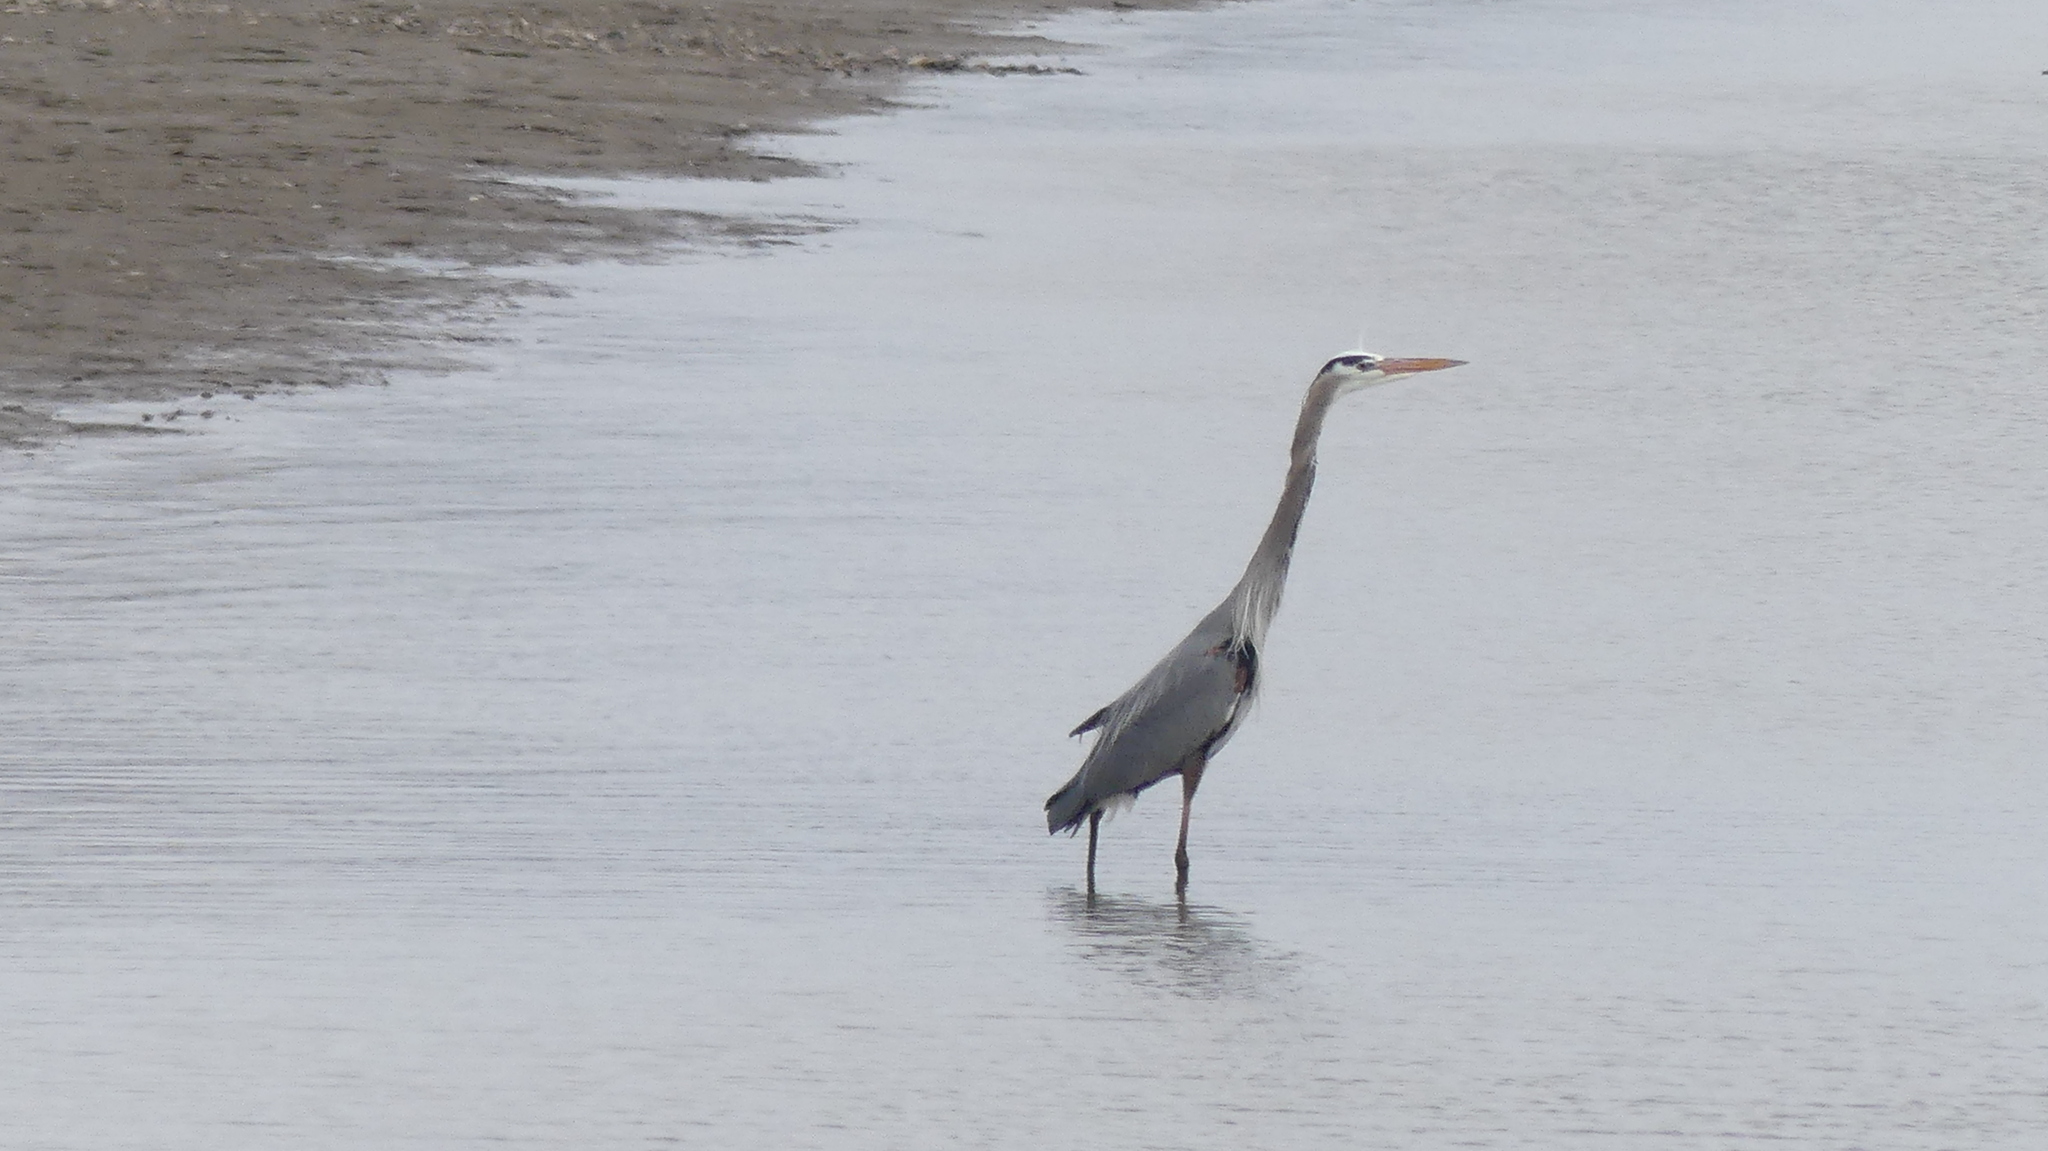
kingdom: Animalia
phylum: Chordata
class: Aves
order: Pelecaniformes
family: Ardeidae
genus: Ardea
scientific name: Ardea herodias
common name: Great blue heron
